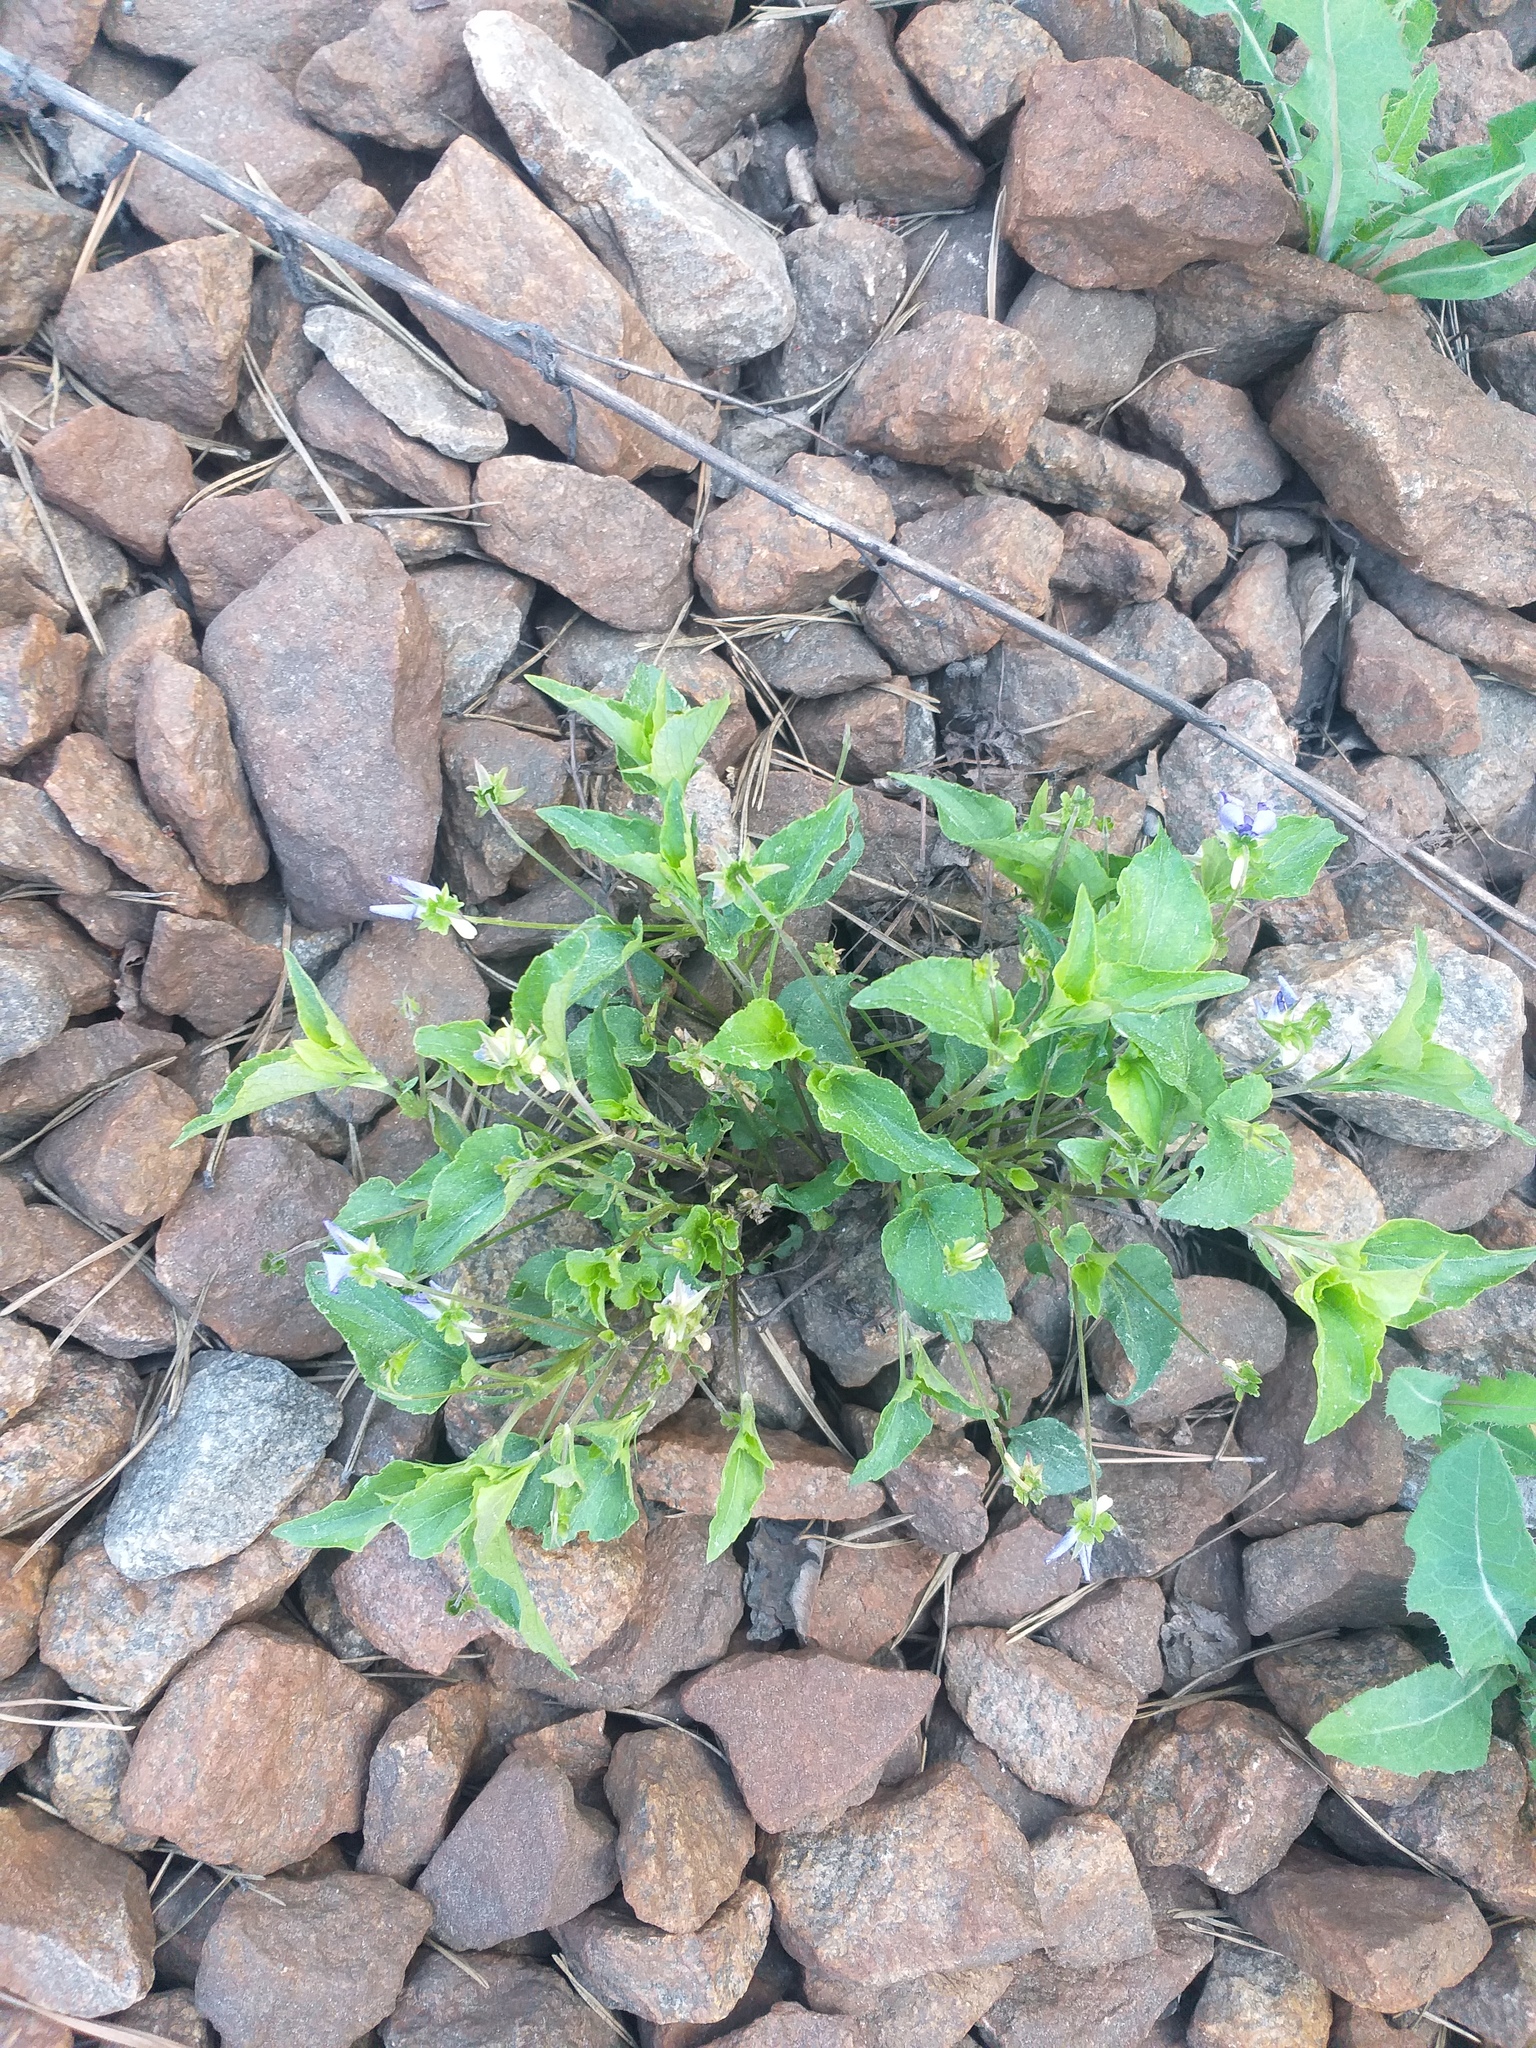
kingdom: Plantae
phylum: Tracheophyta
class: Magnoliopsida
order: Malpighiales
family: Violaceae
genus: Viola
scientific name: Viola canina
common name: Heath dog-violet
